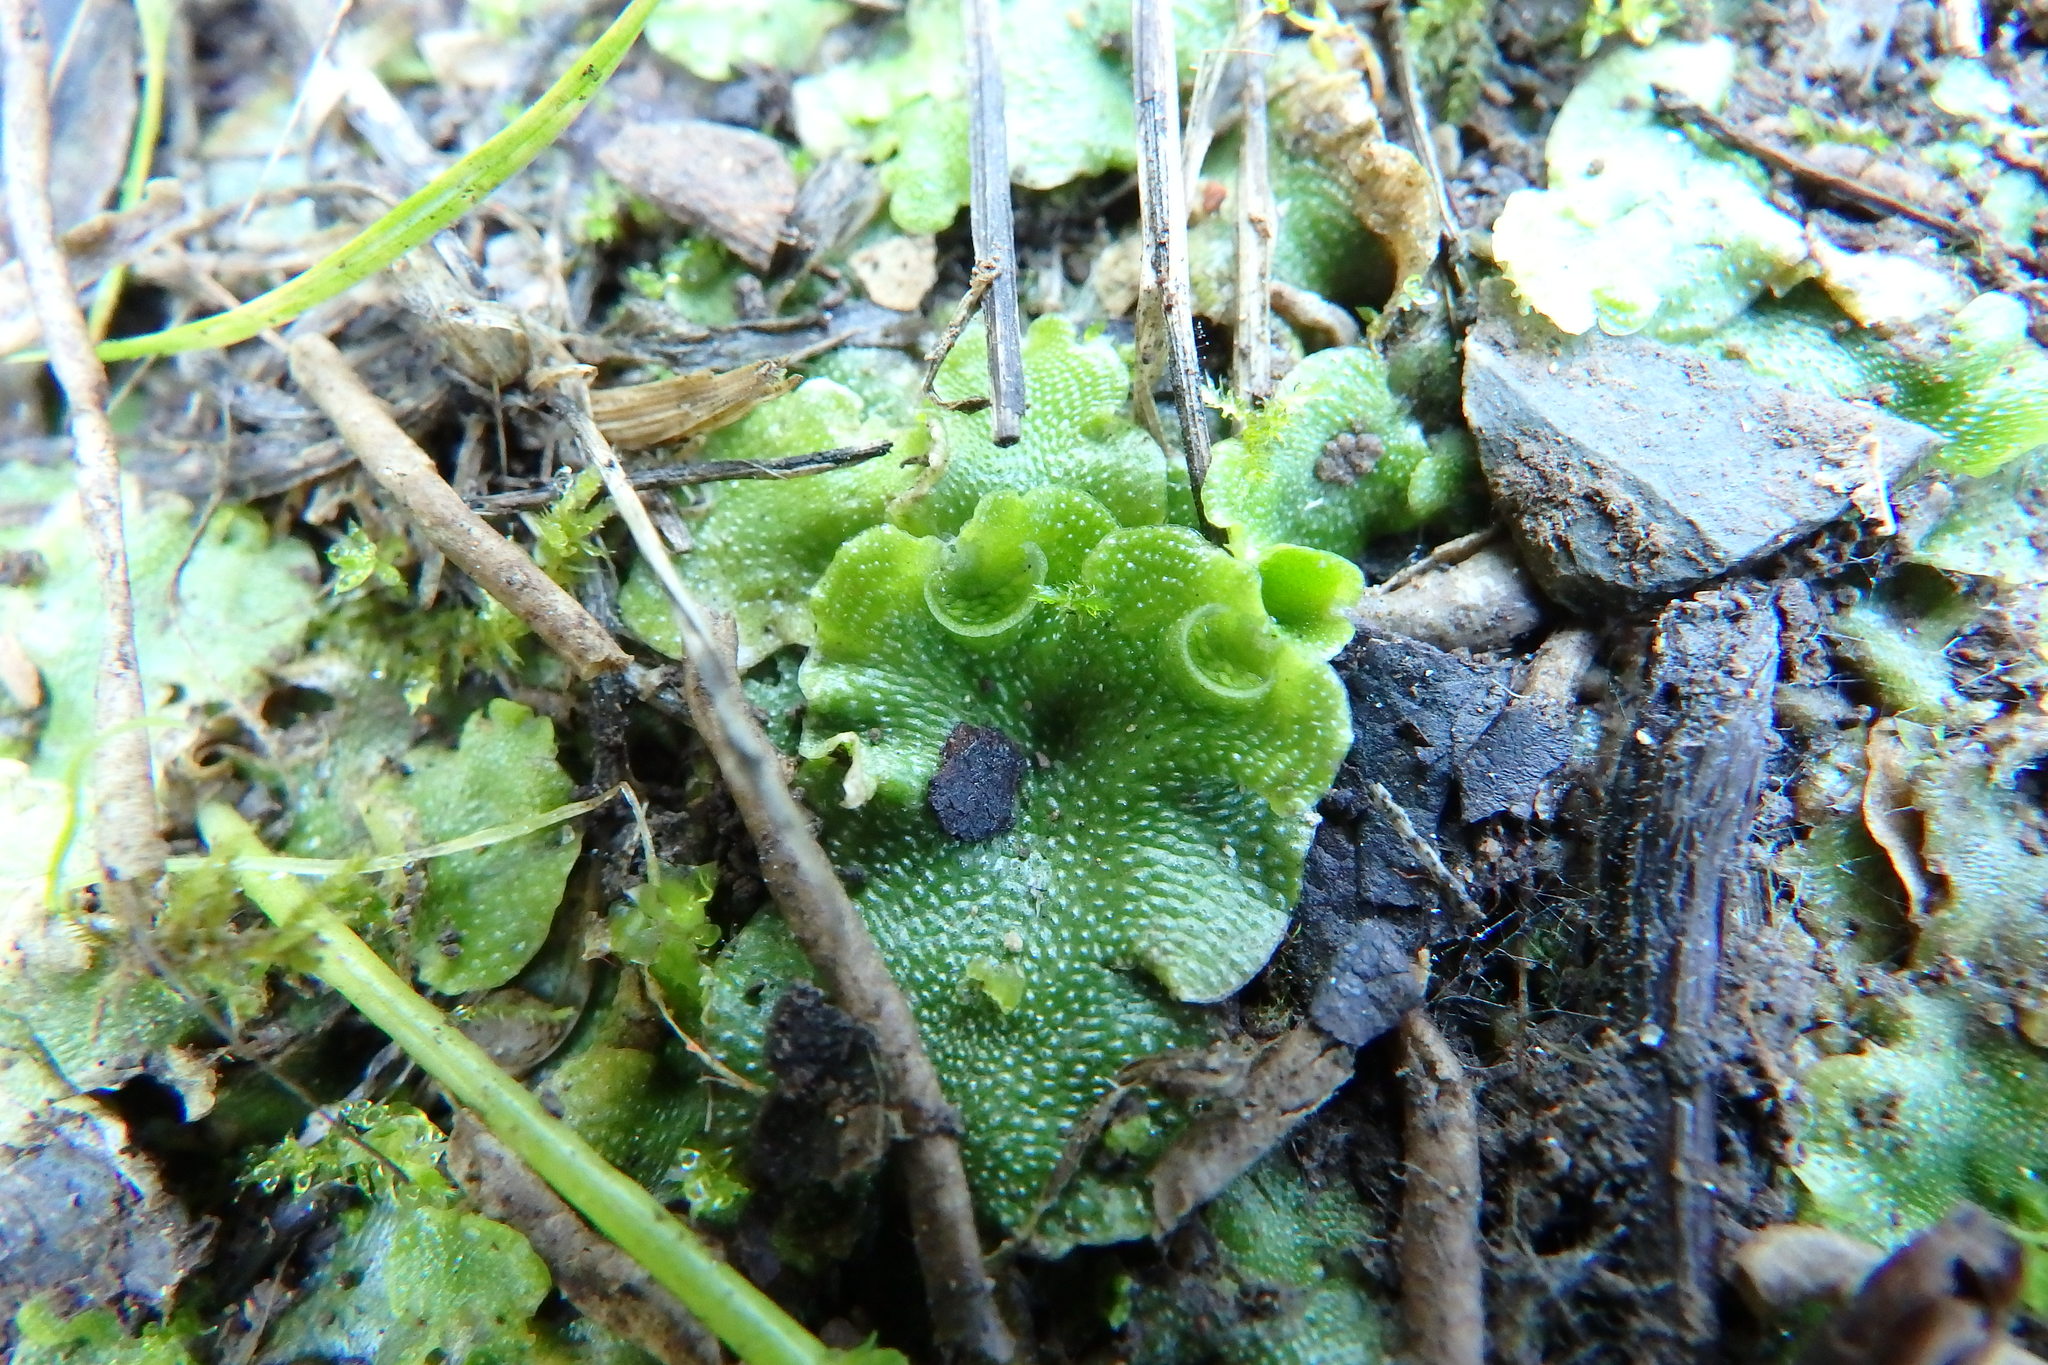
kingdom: Plantae
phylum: Marchantiophyta
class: Marchantiopsida
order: Lunulariales
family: Lunulariaceae
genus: Lunularia
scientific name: Lunularia cruciata
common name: Crescent-cup liverwort
